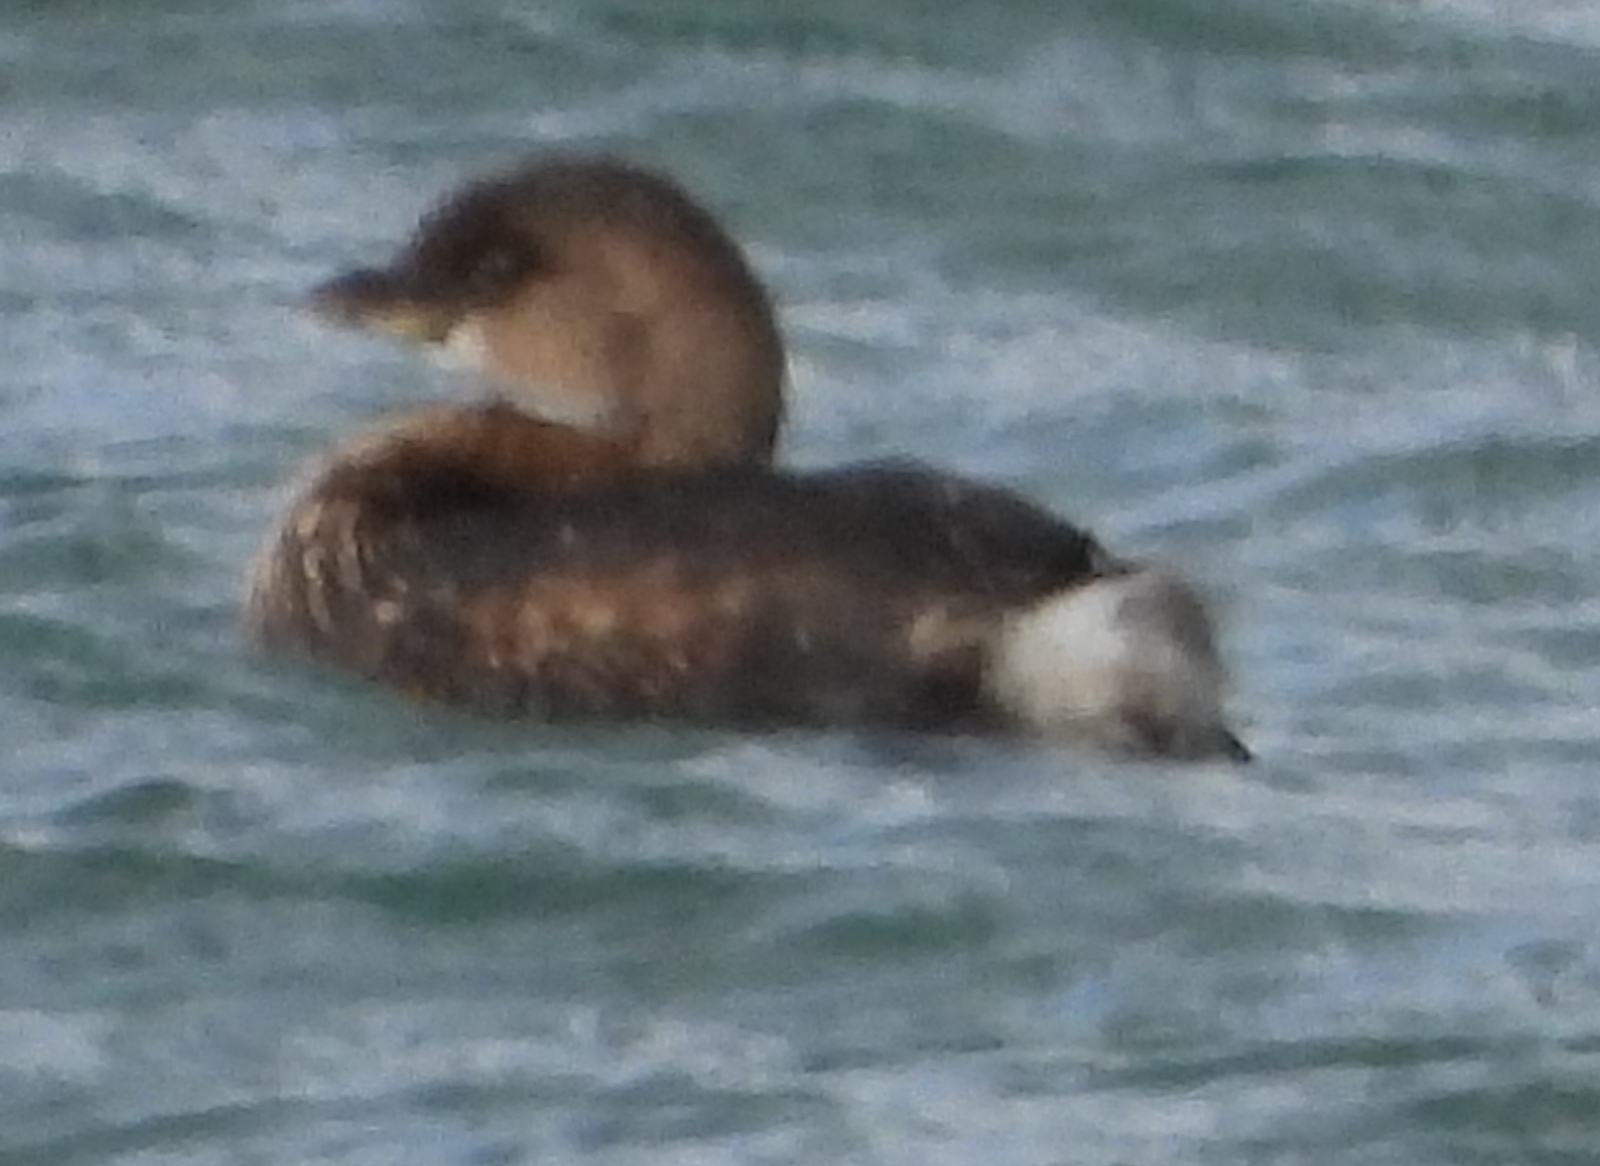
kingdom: Animalia
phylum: Chordata
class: Aves
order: Podicipediformes
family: Podicipedidae
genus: Podilymbus
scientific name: Podilymbus podiceps
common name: Pied-billed grebe
